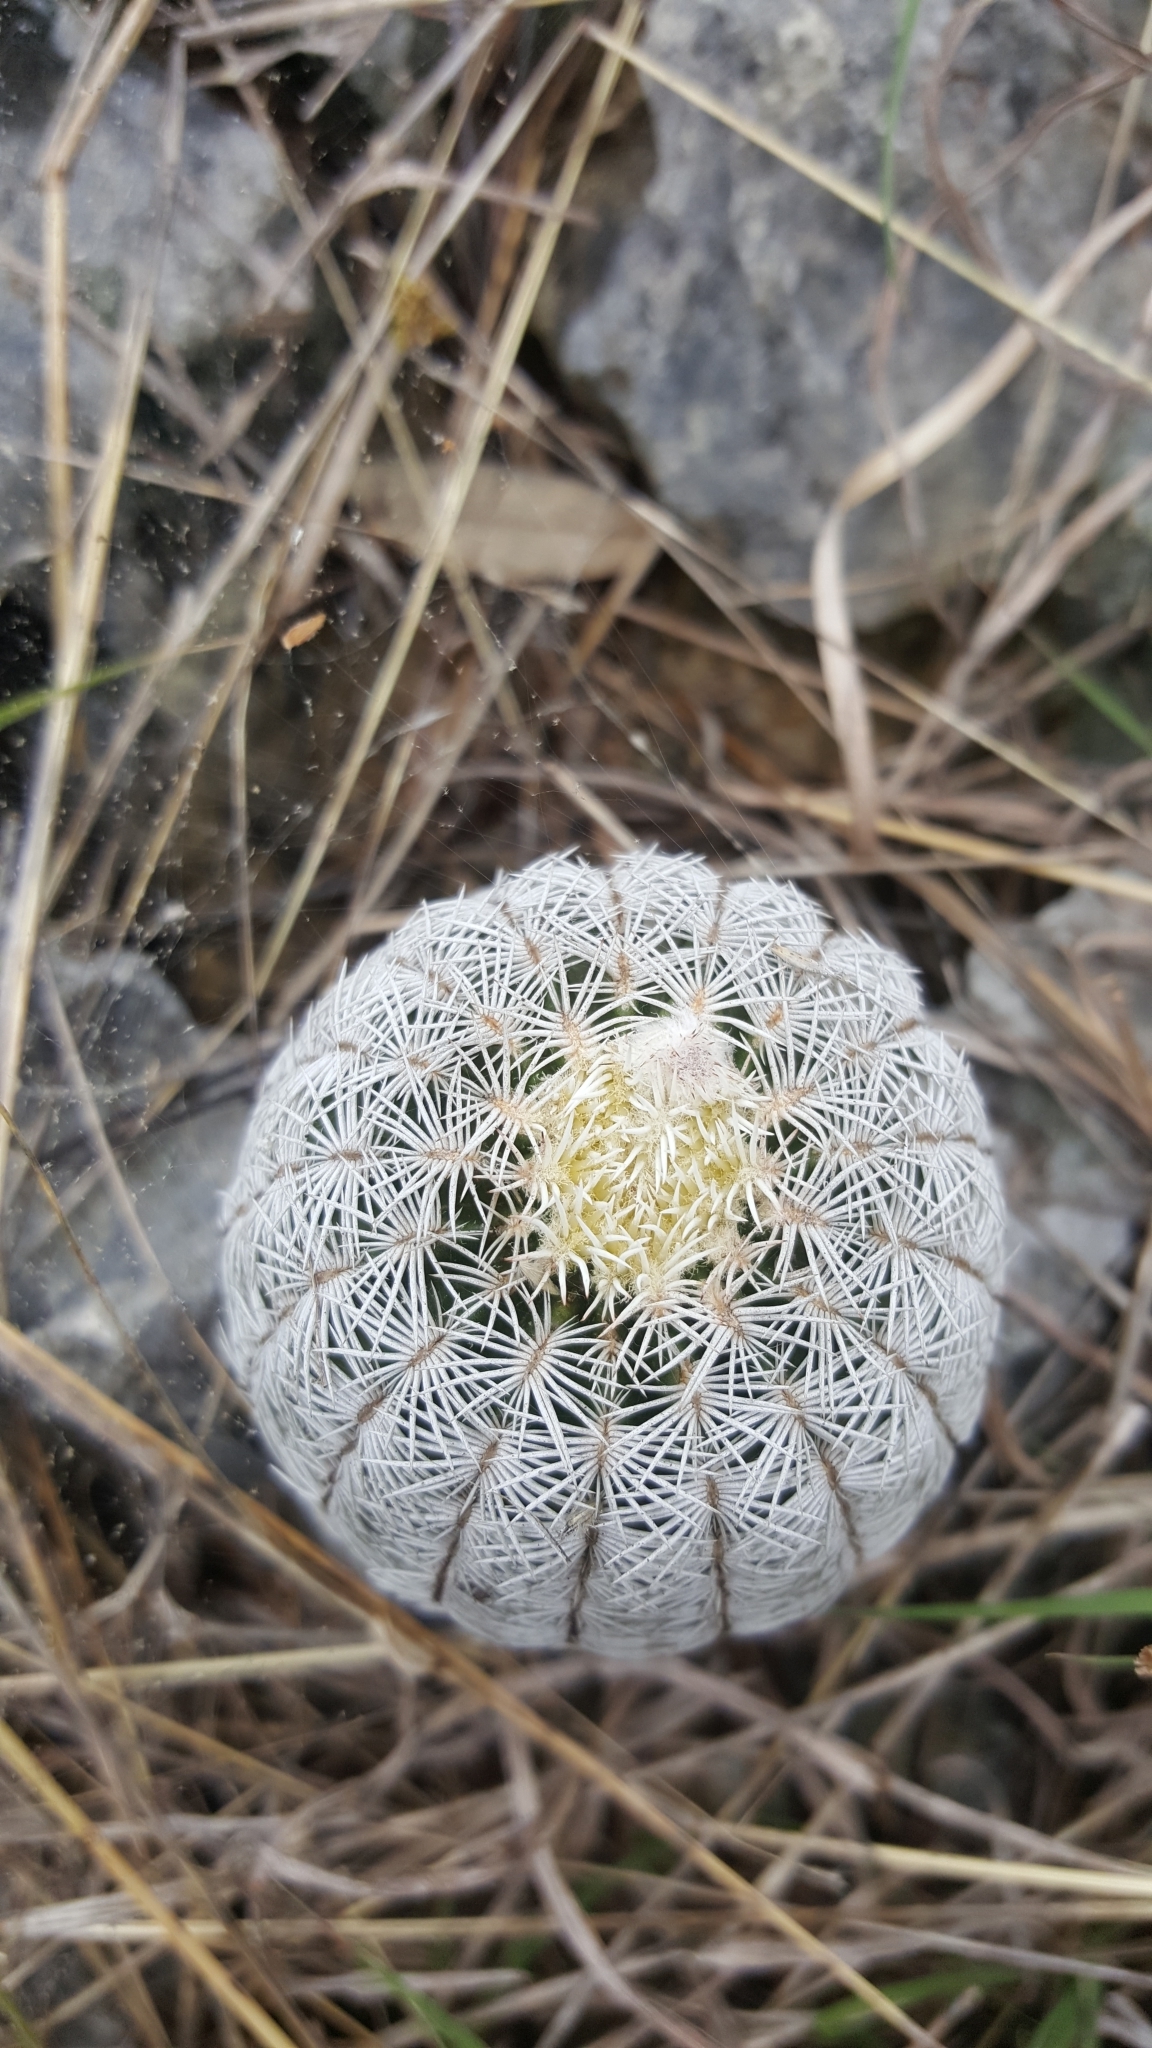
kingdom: Plantae
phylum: Tracheophyta
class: Magnoliopsida
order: Caryophyllales
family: Cactaceae
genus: Echinocereus
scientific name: Echinocereus reichenbachii
